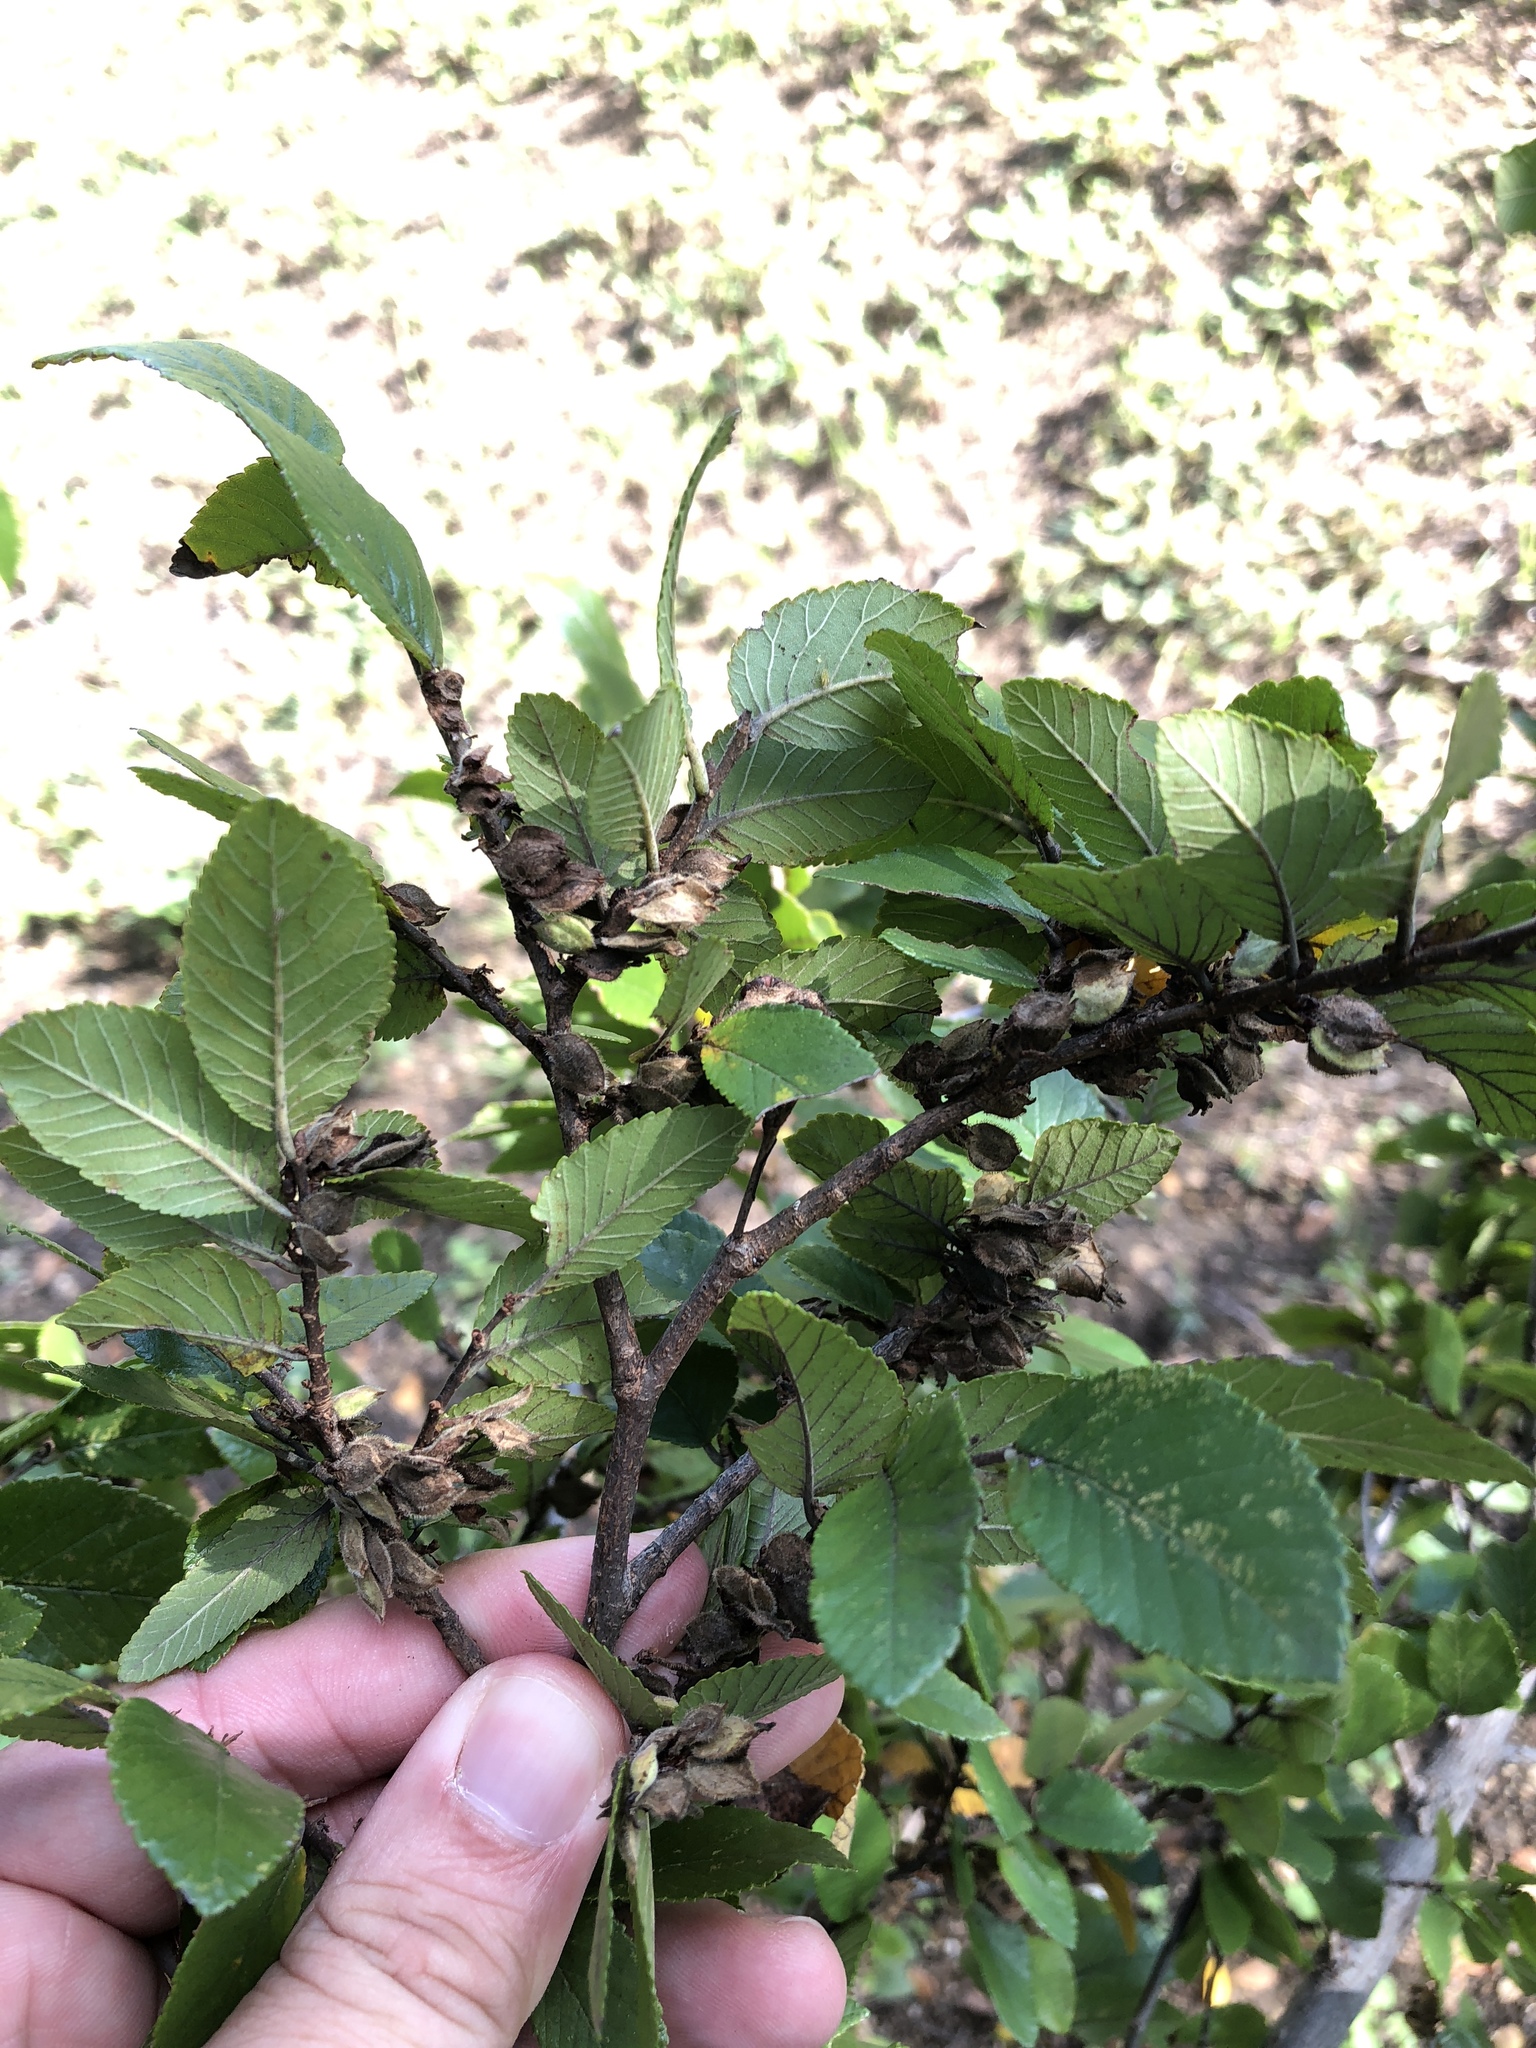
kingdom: Plantae
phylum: Tracheophyta
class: Magnoliopsida
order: Rosales
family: Ulmaceae
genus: Ulmus
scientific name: Ulmus crassifolia
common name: Basket elm
